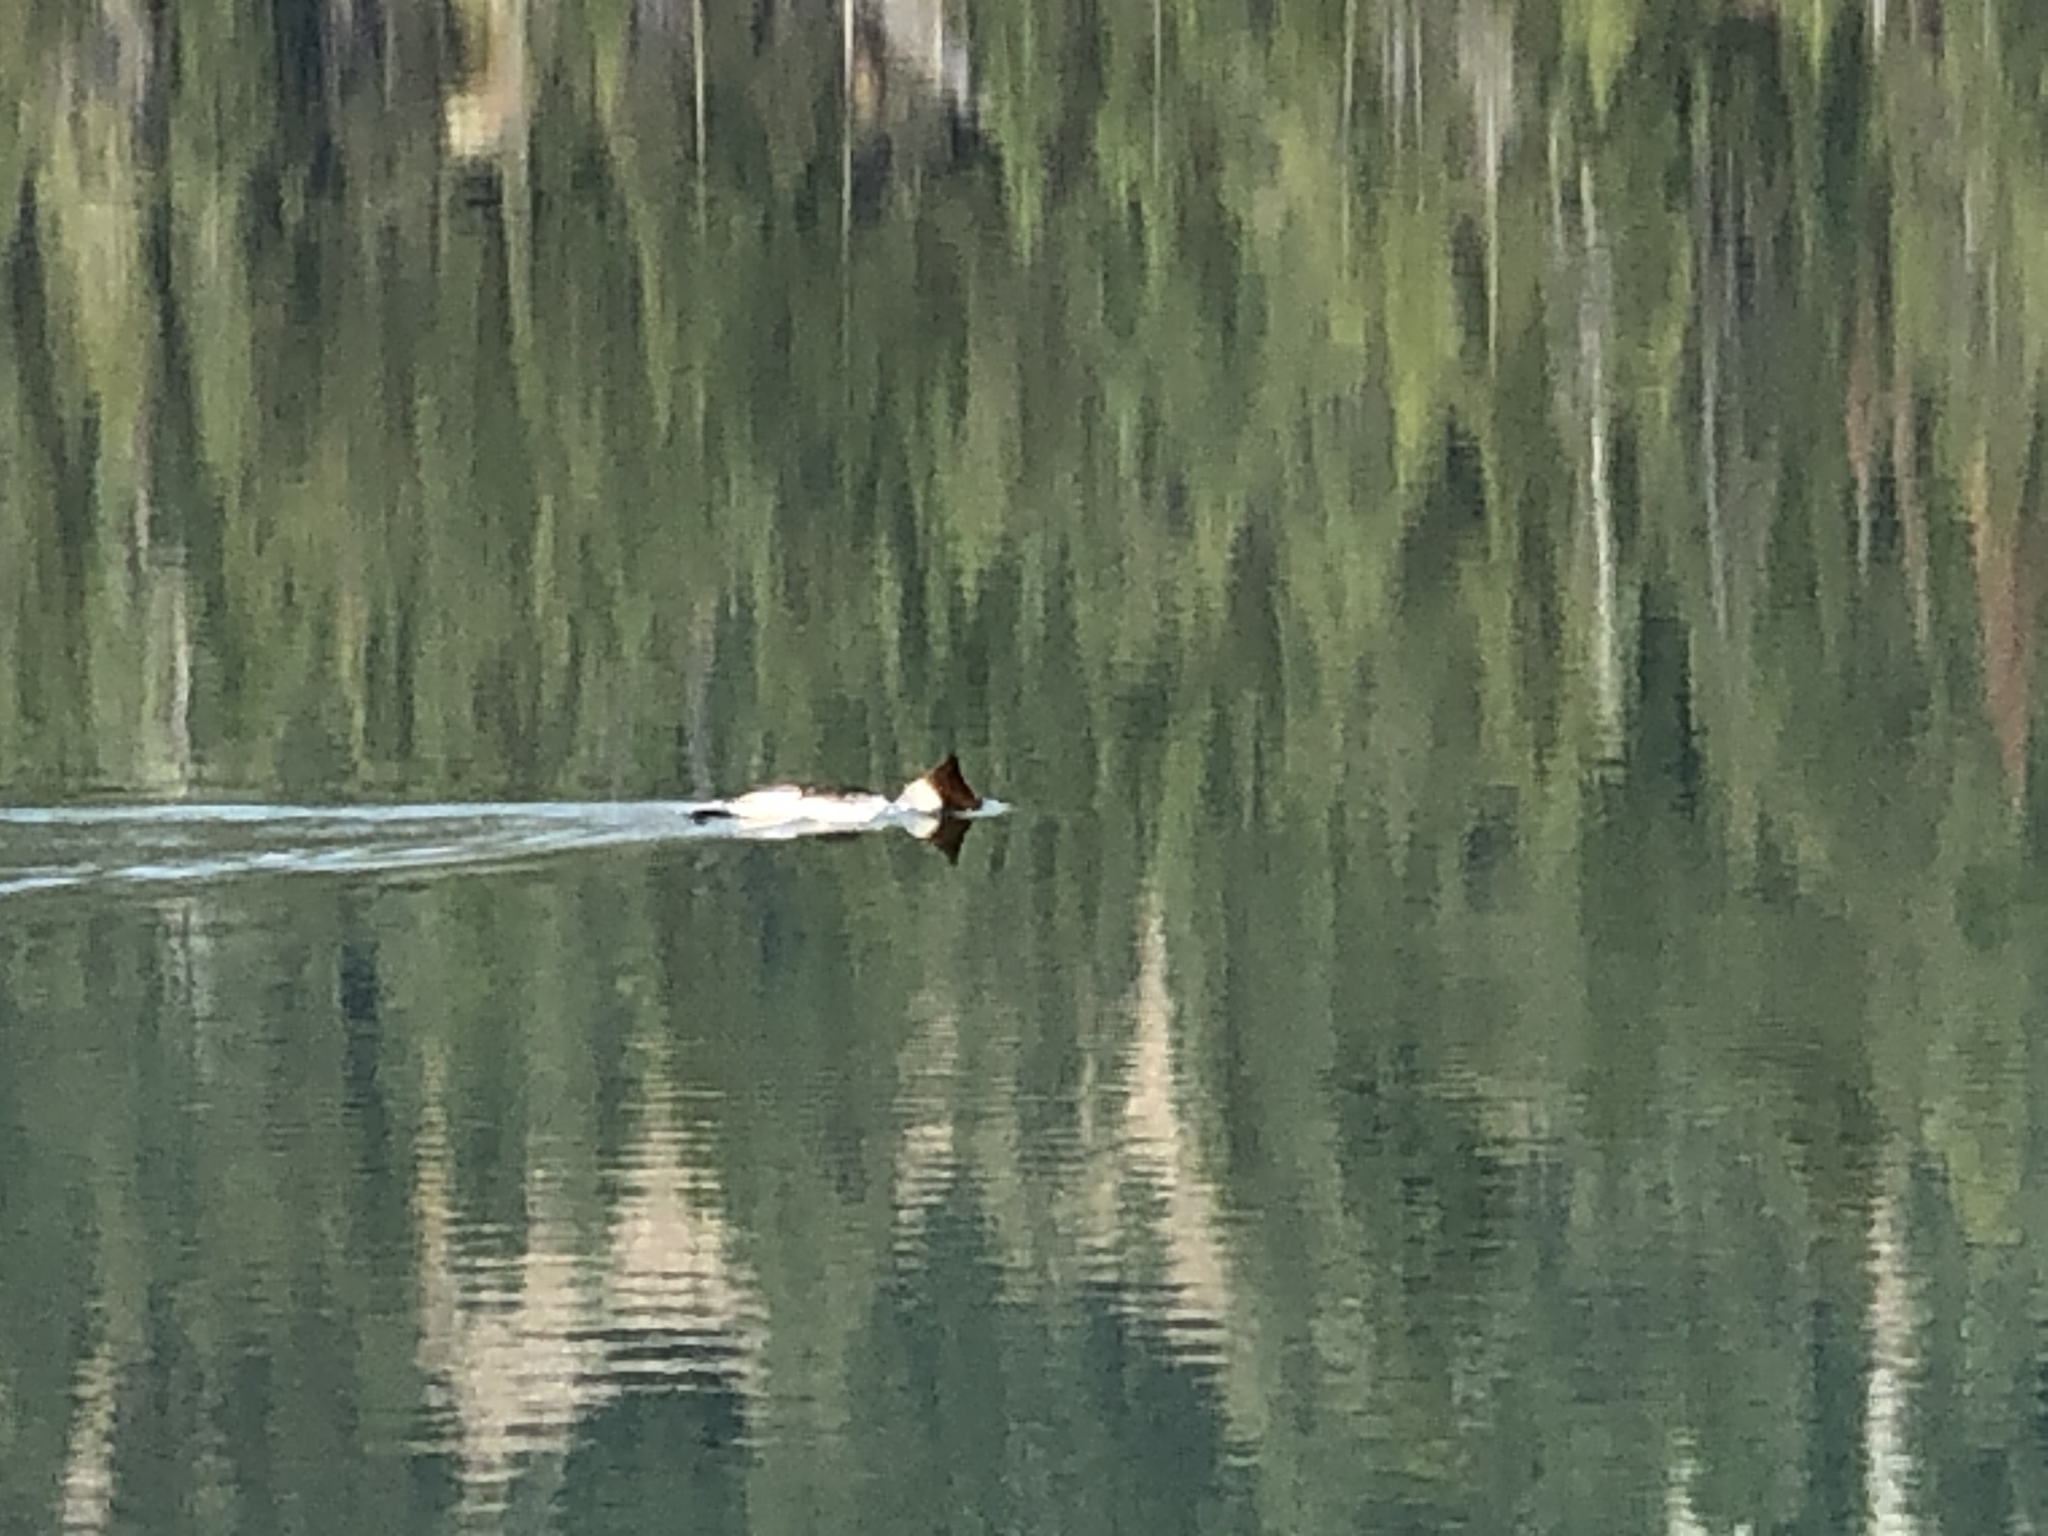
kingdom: Animalia
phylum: Chordata
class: Aves
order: Anseriformes
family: Anatidae
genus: Mergus
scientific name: Mergus merganser
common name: Common merganser
